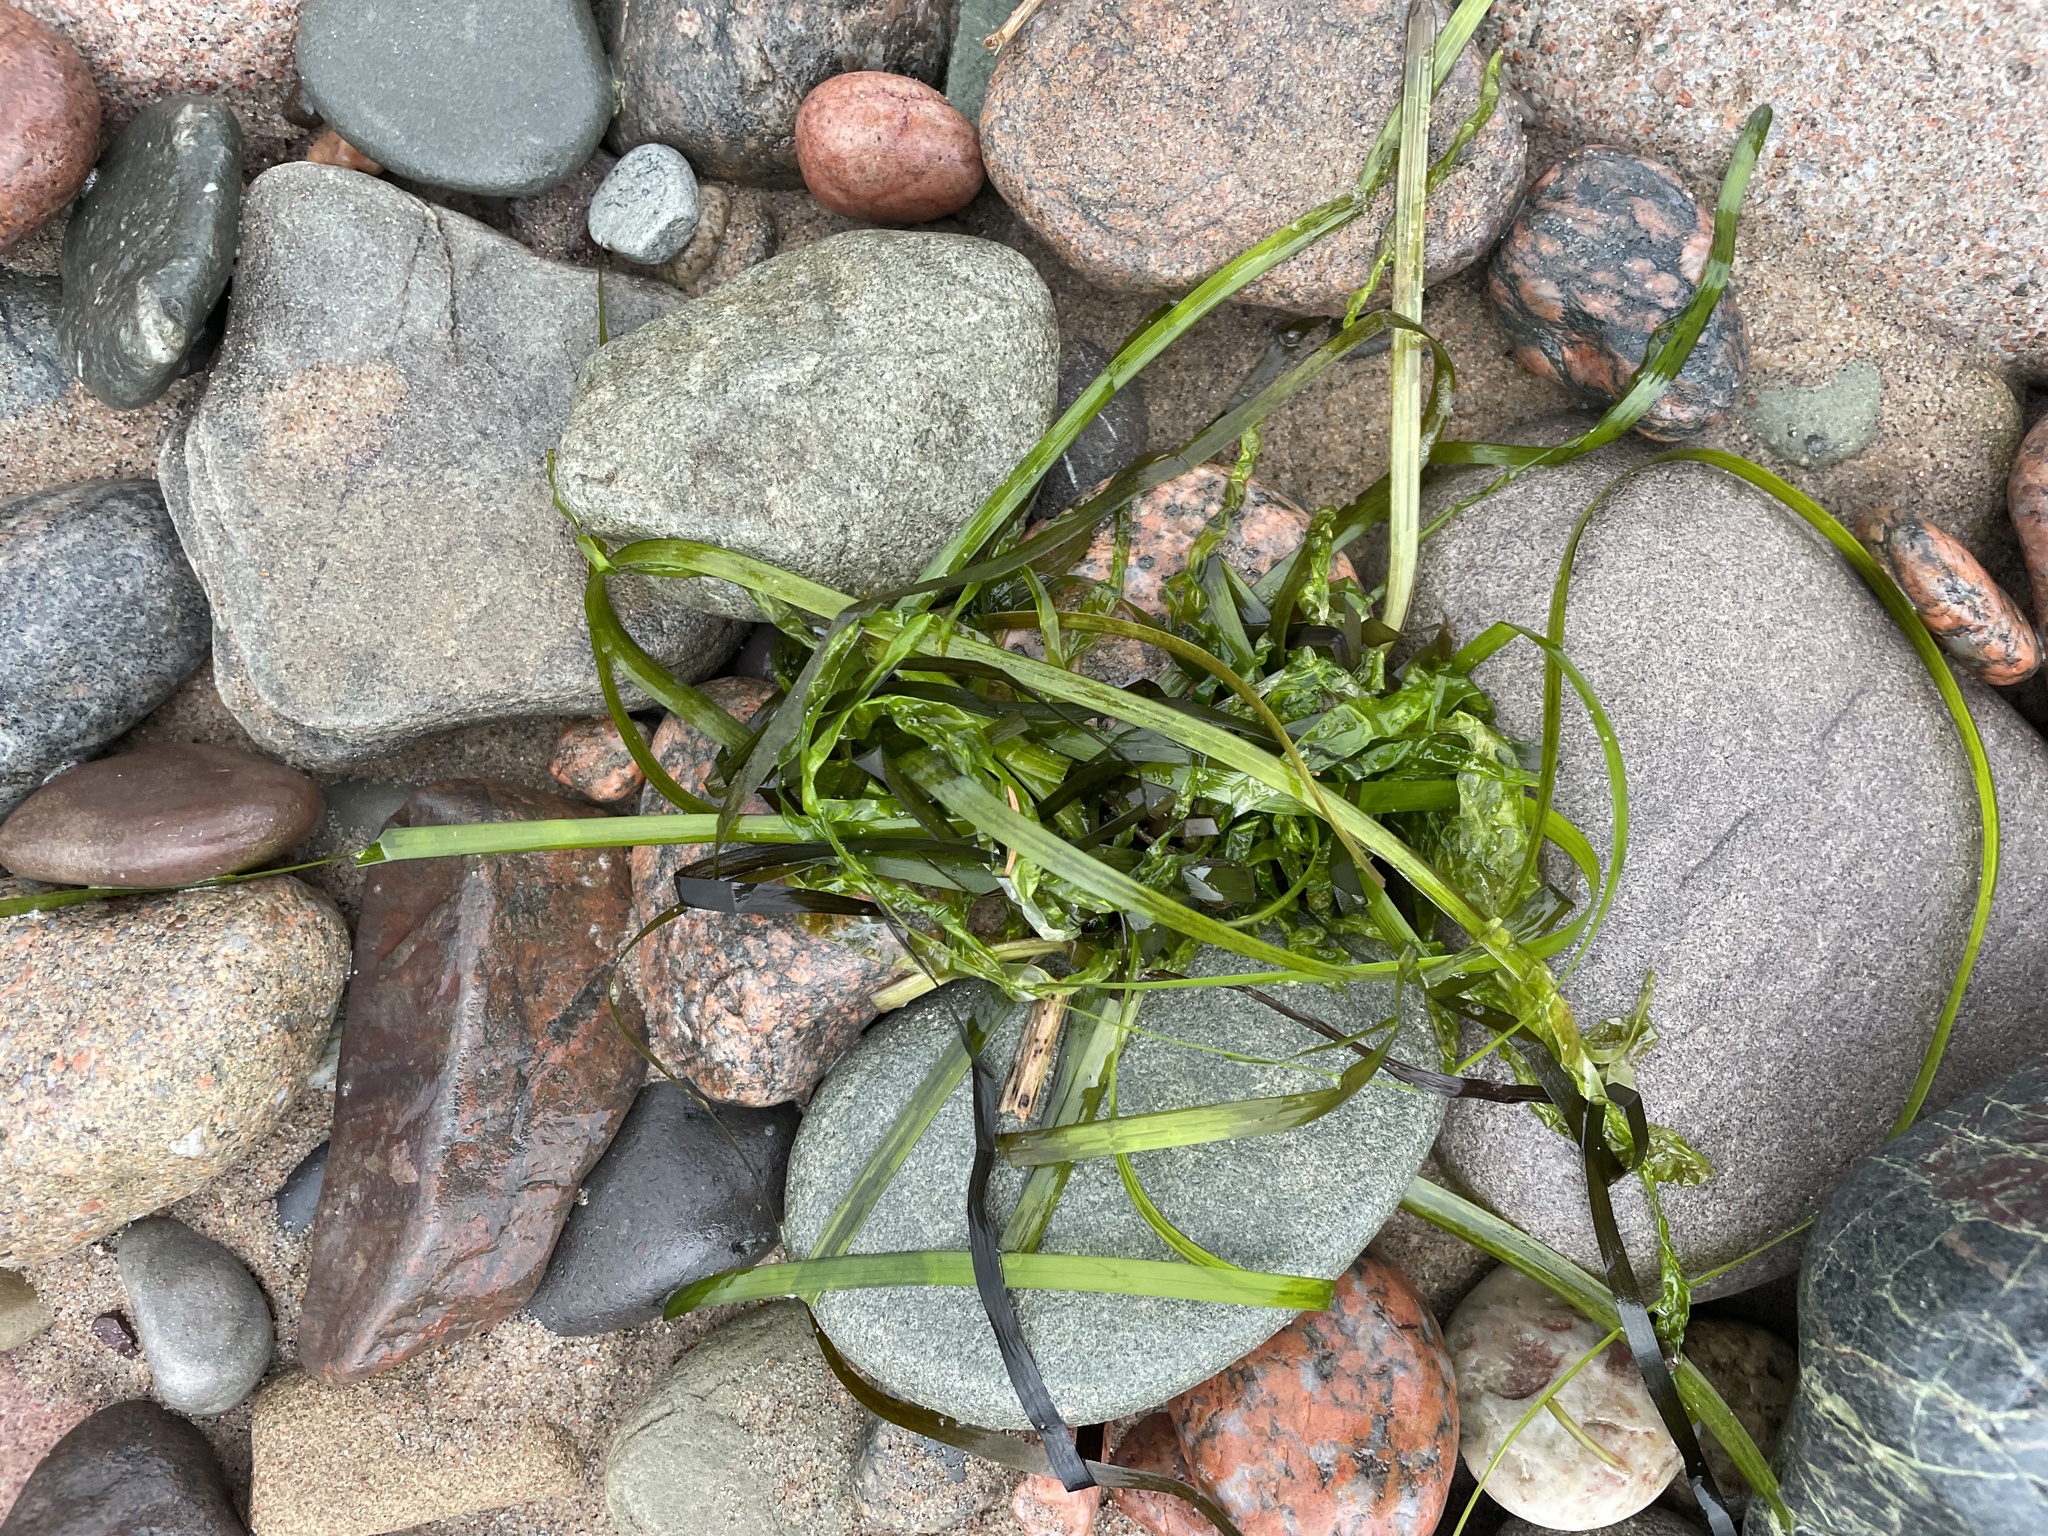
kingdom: Plantae
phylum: Tracheophyta
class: Liliopsida
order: Alismatales
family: Zosteraceae
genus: Zostera
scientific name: Zostera marina
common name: Eelgrass
